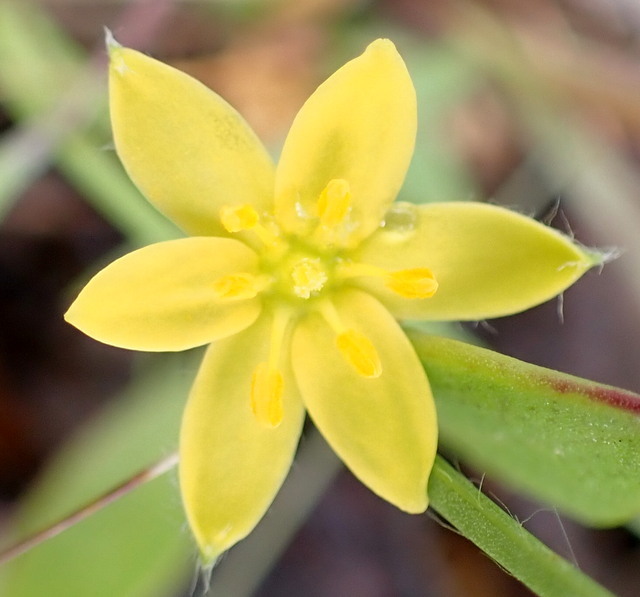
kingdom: Plantae
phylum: Tracheophyta
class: Liliopsida
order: Asparagales
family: Hypoxidaceae
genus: Hypoxis
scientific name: Hypoxis juncea
